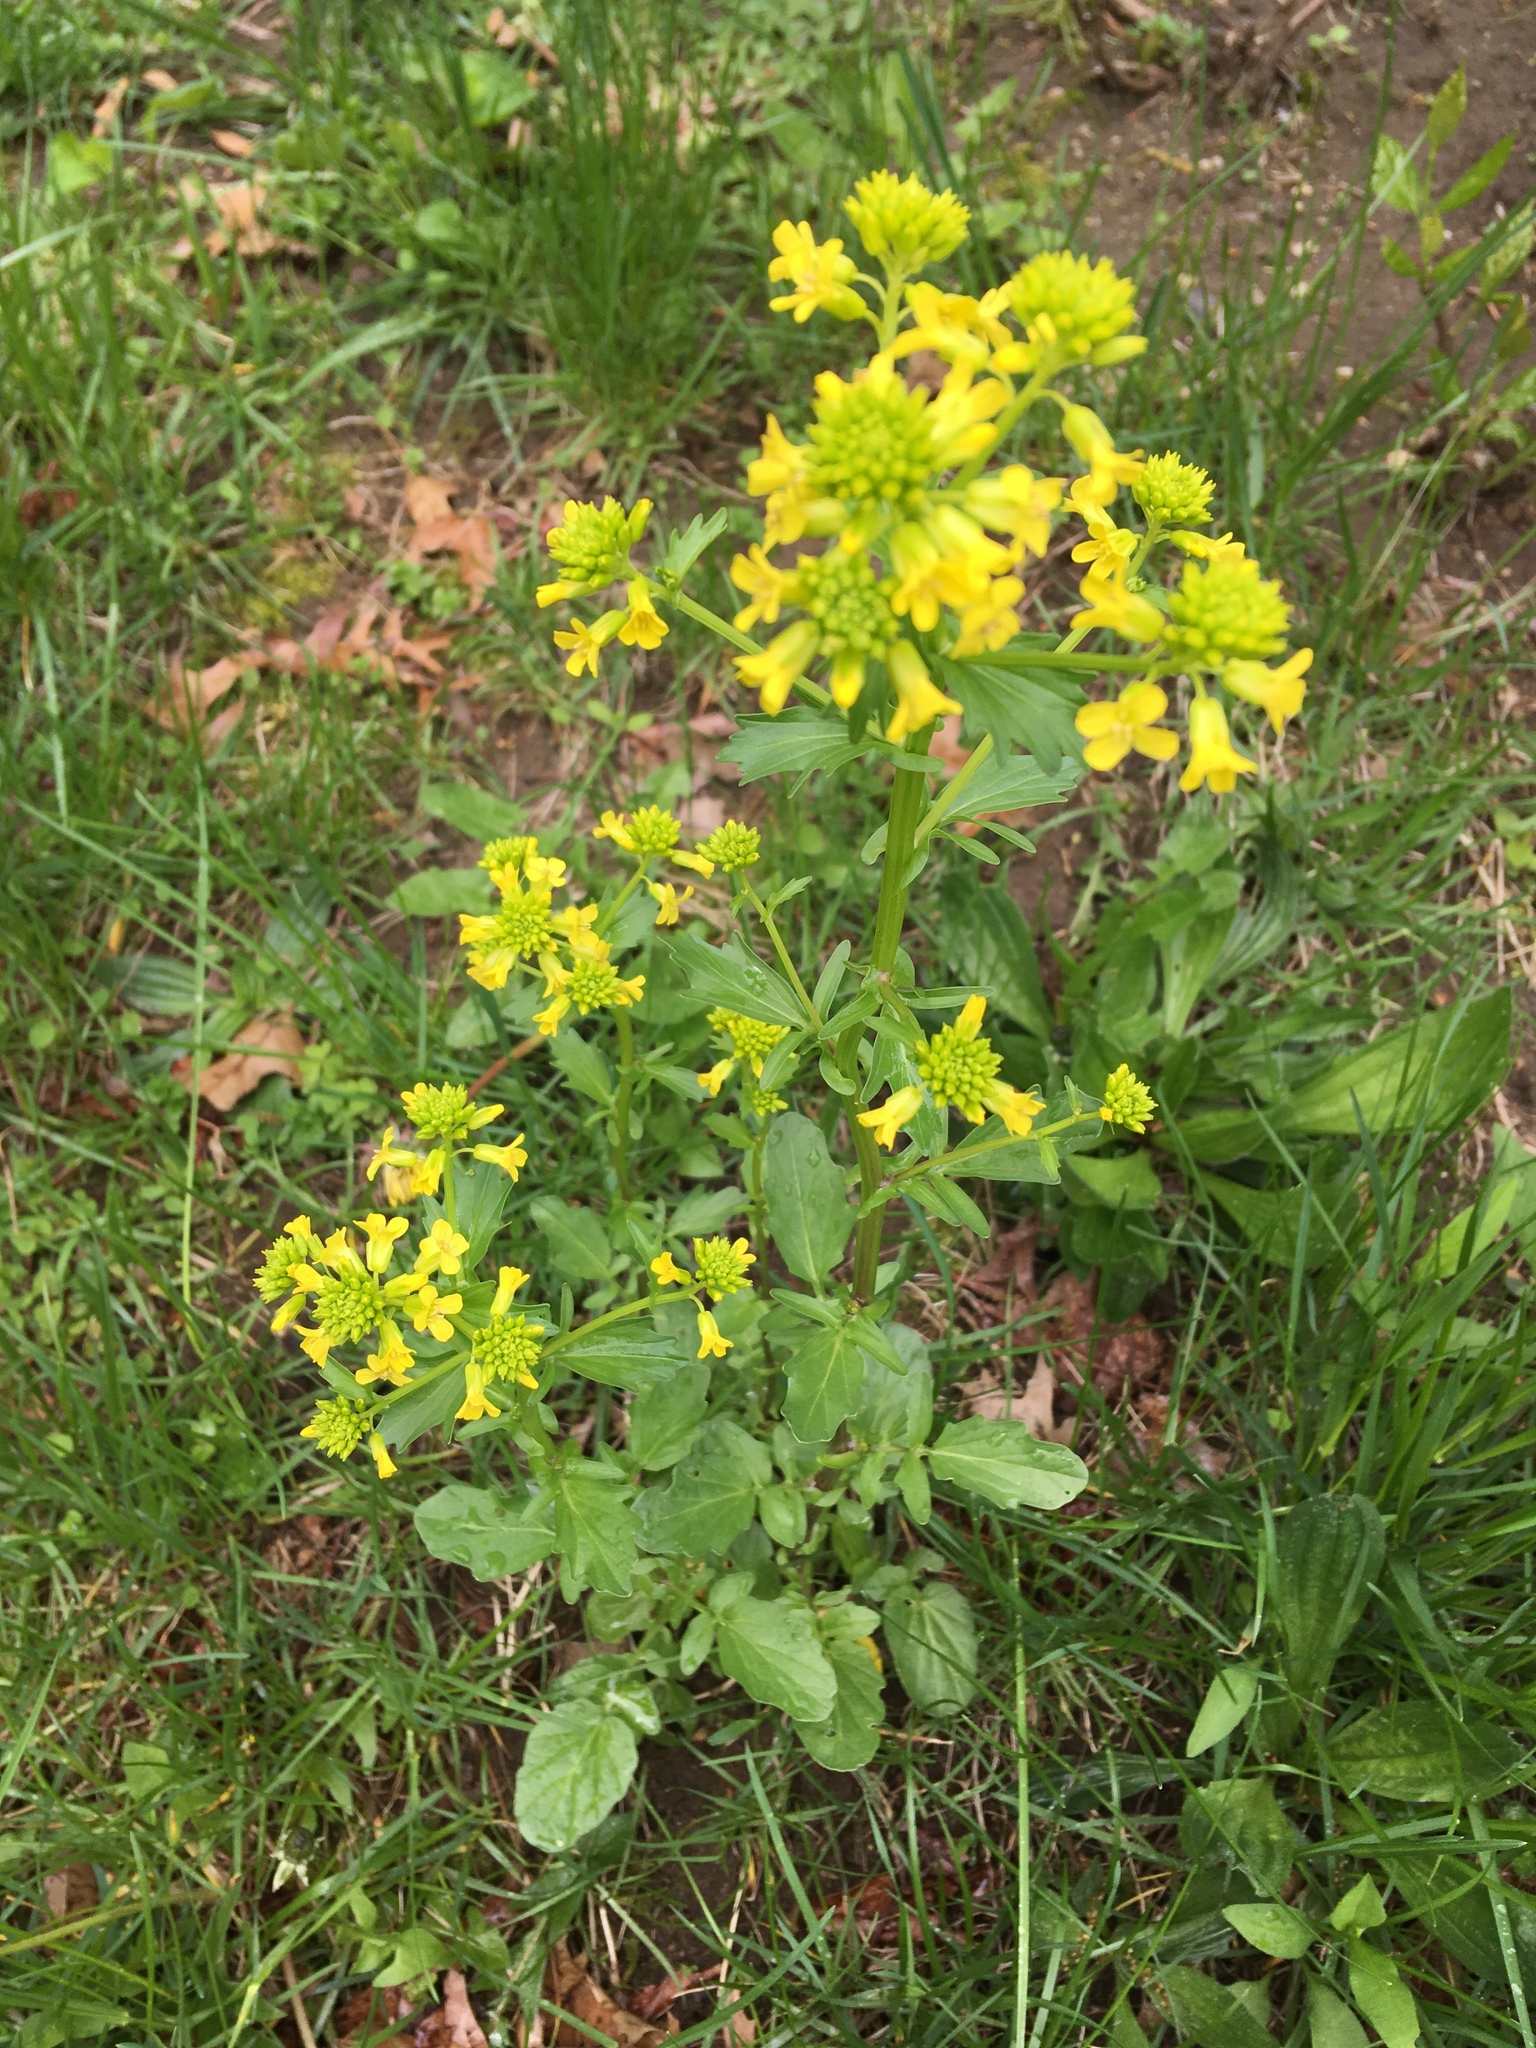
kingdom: Plantae
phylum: Tracheophyta
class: Magnoliopsida
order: Brassicales
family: Brassicaceae
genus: Barbarea
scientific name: Barbarea vulgaris
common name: Cressy-greens
